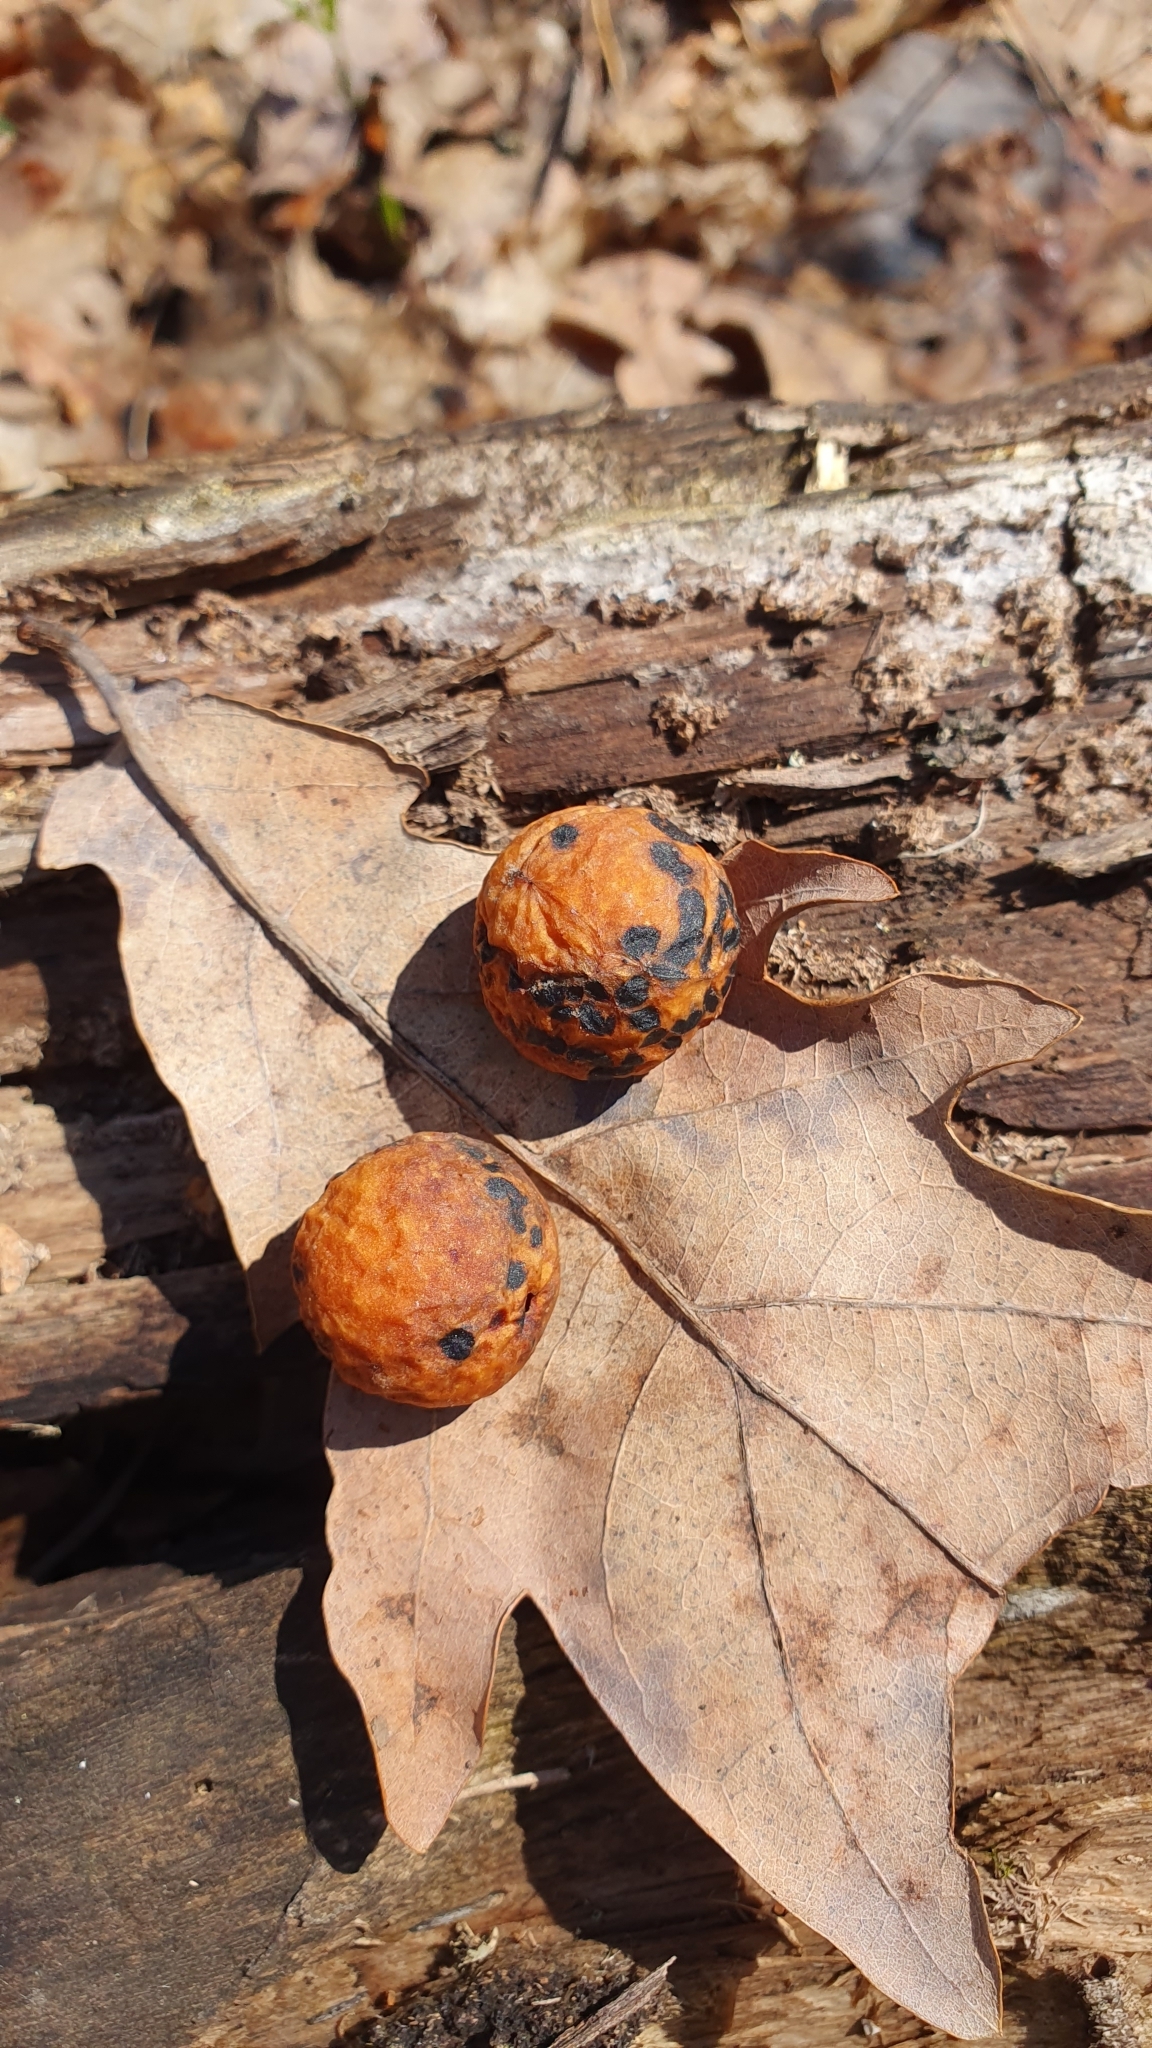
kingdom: Animalia
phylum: Arthropoda
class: Insecta
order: Hymenoptera
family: Cynipidae
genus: Cynips
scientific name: Cynips quercusfolii
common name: Cherry gall
